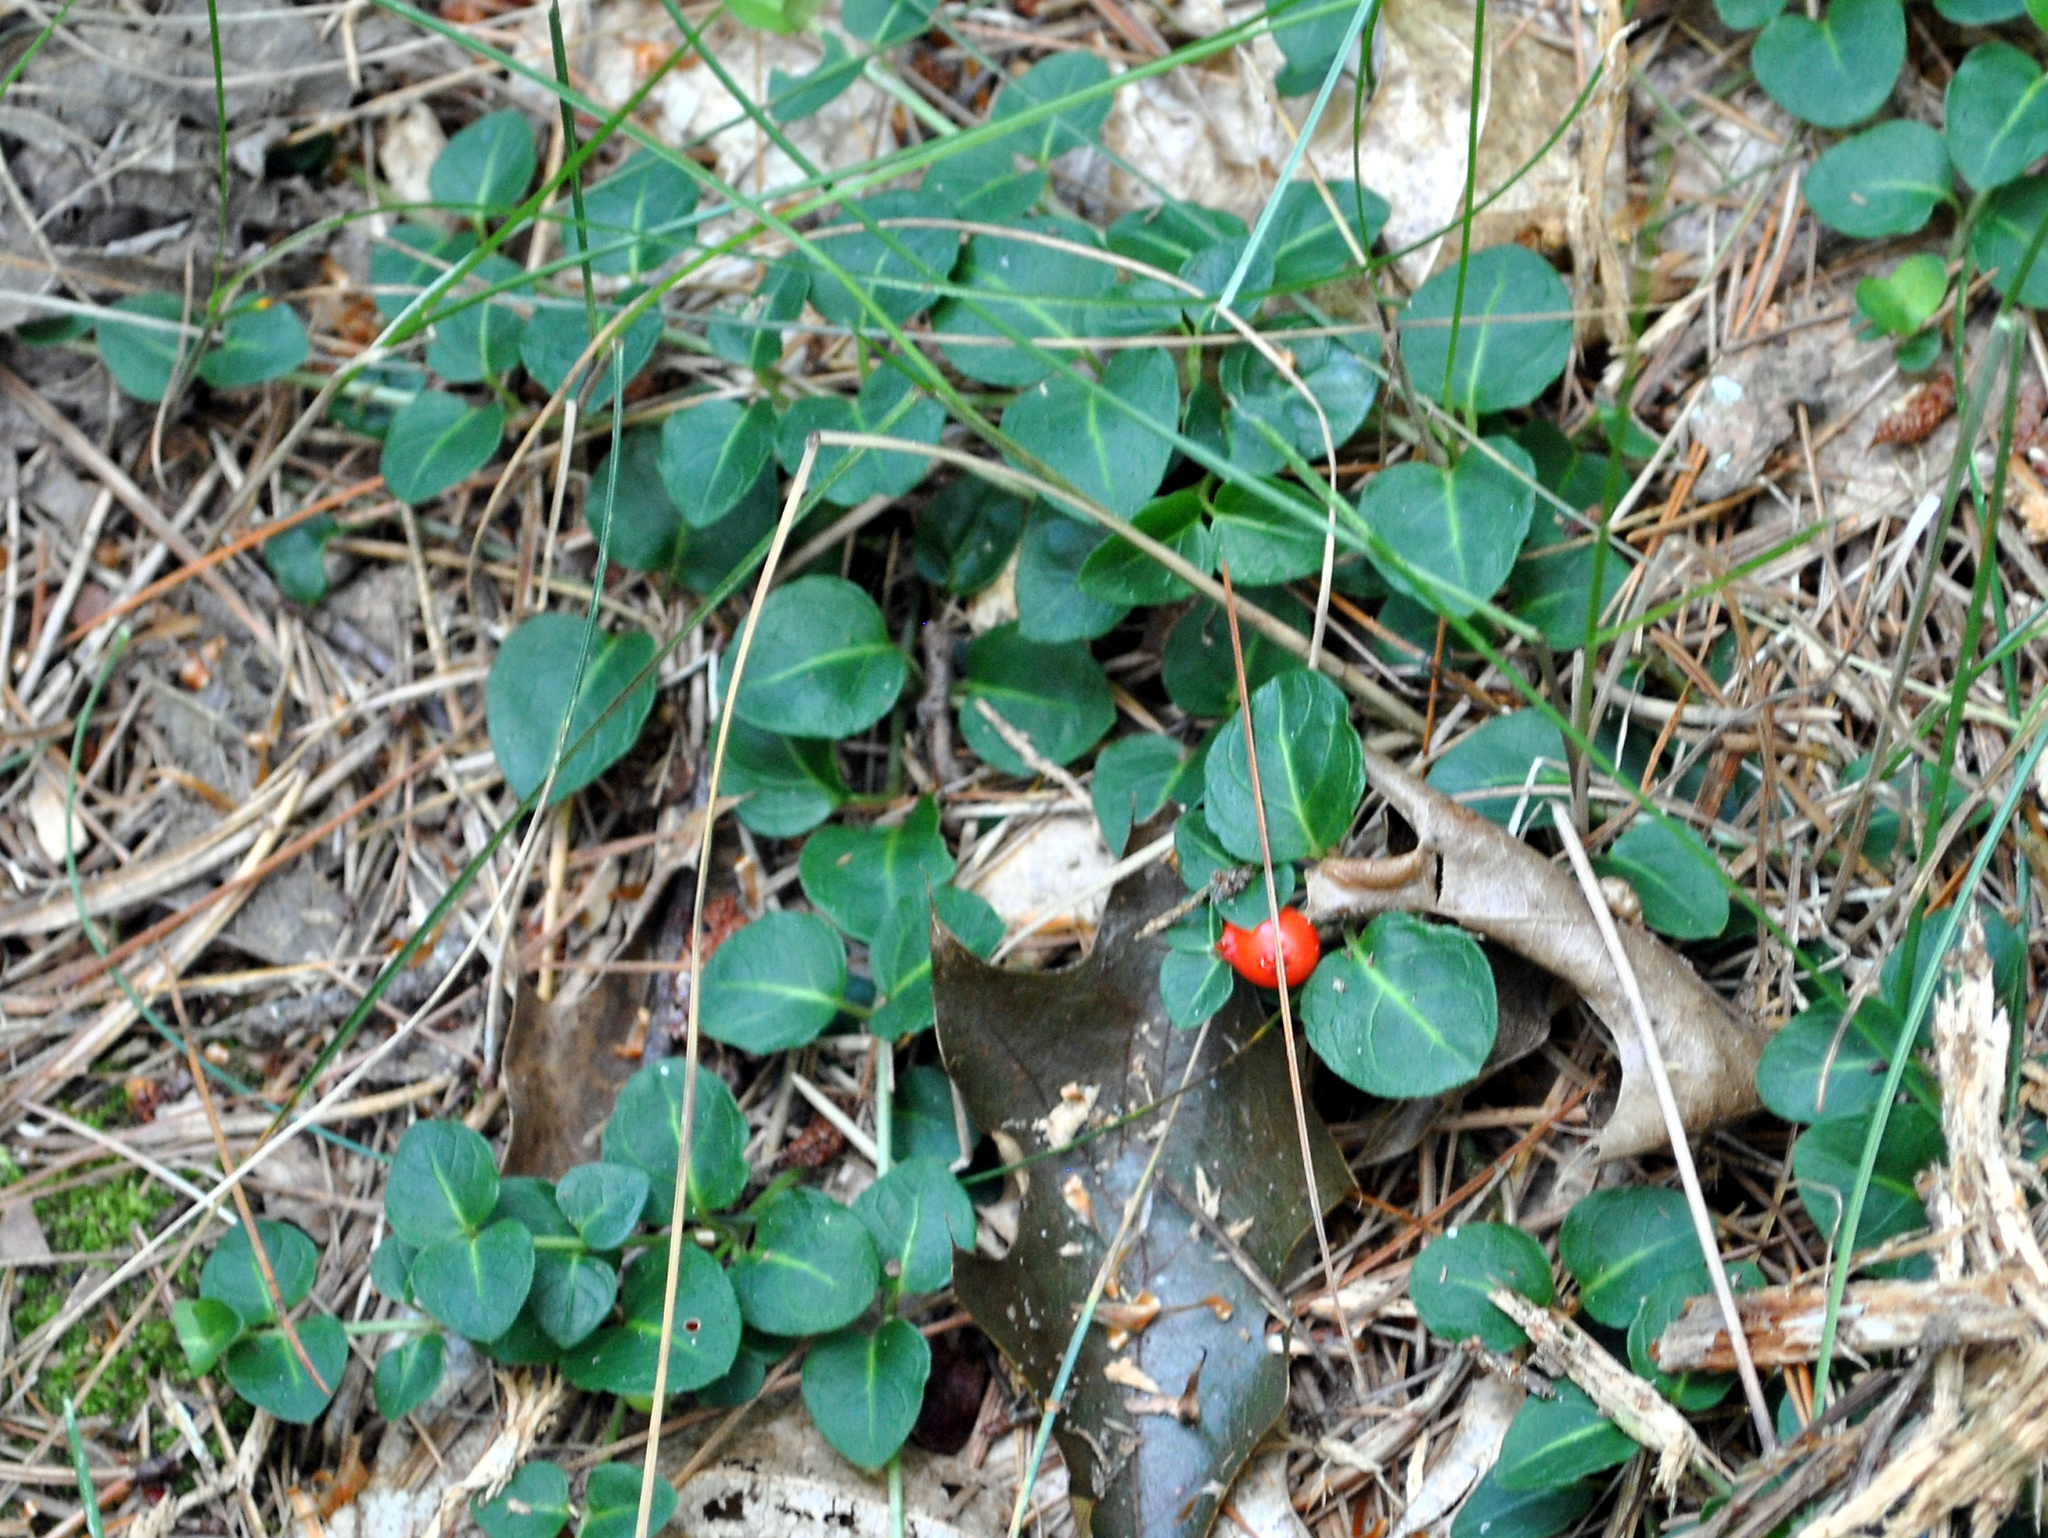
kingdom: Plantae
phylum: Tracheophyta
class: Magnoliopsida
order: Gentianales
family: Rubiaceae
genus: Mitchella
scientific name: Mitchella repens
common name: Partridge-berry
